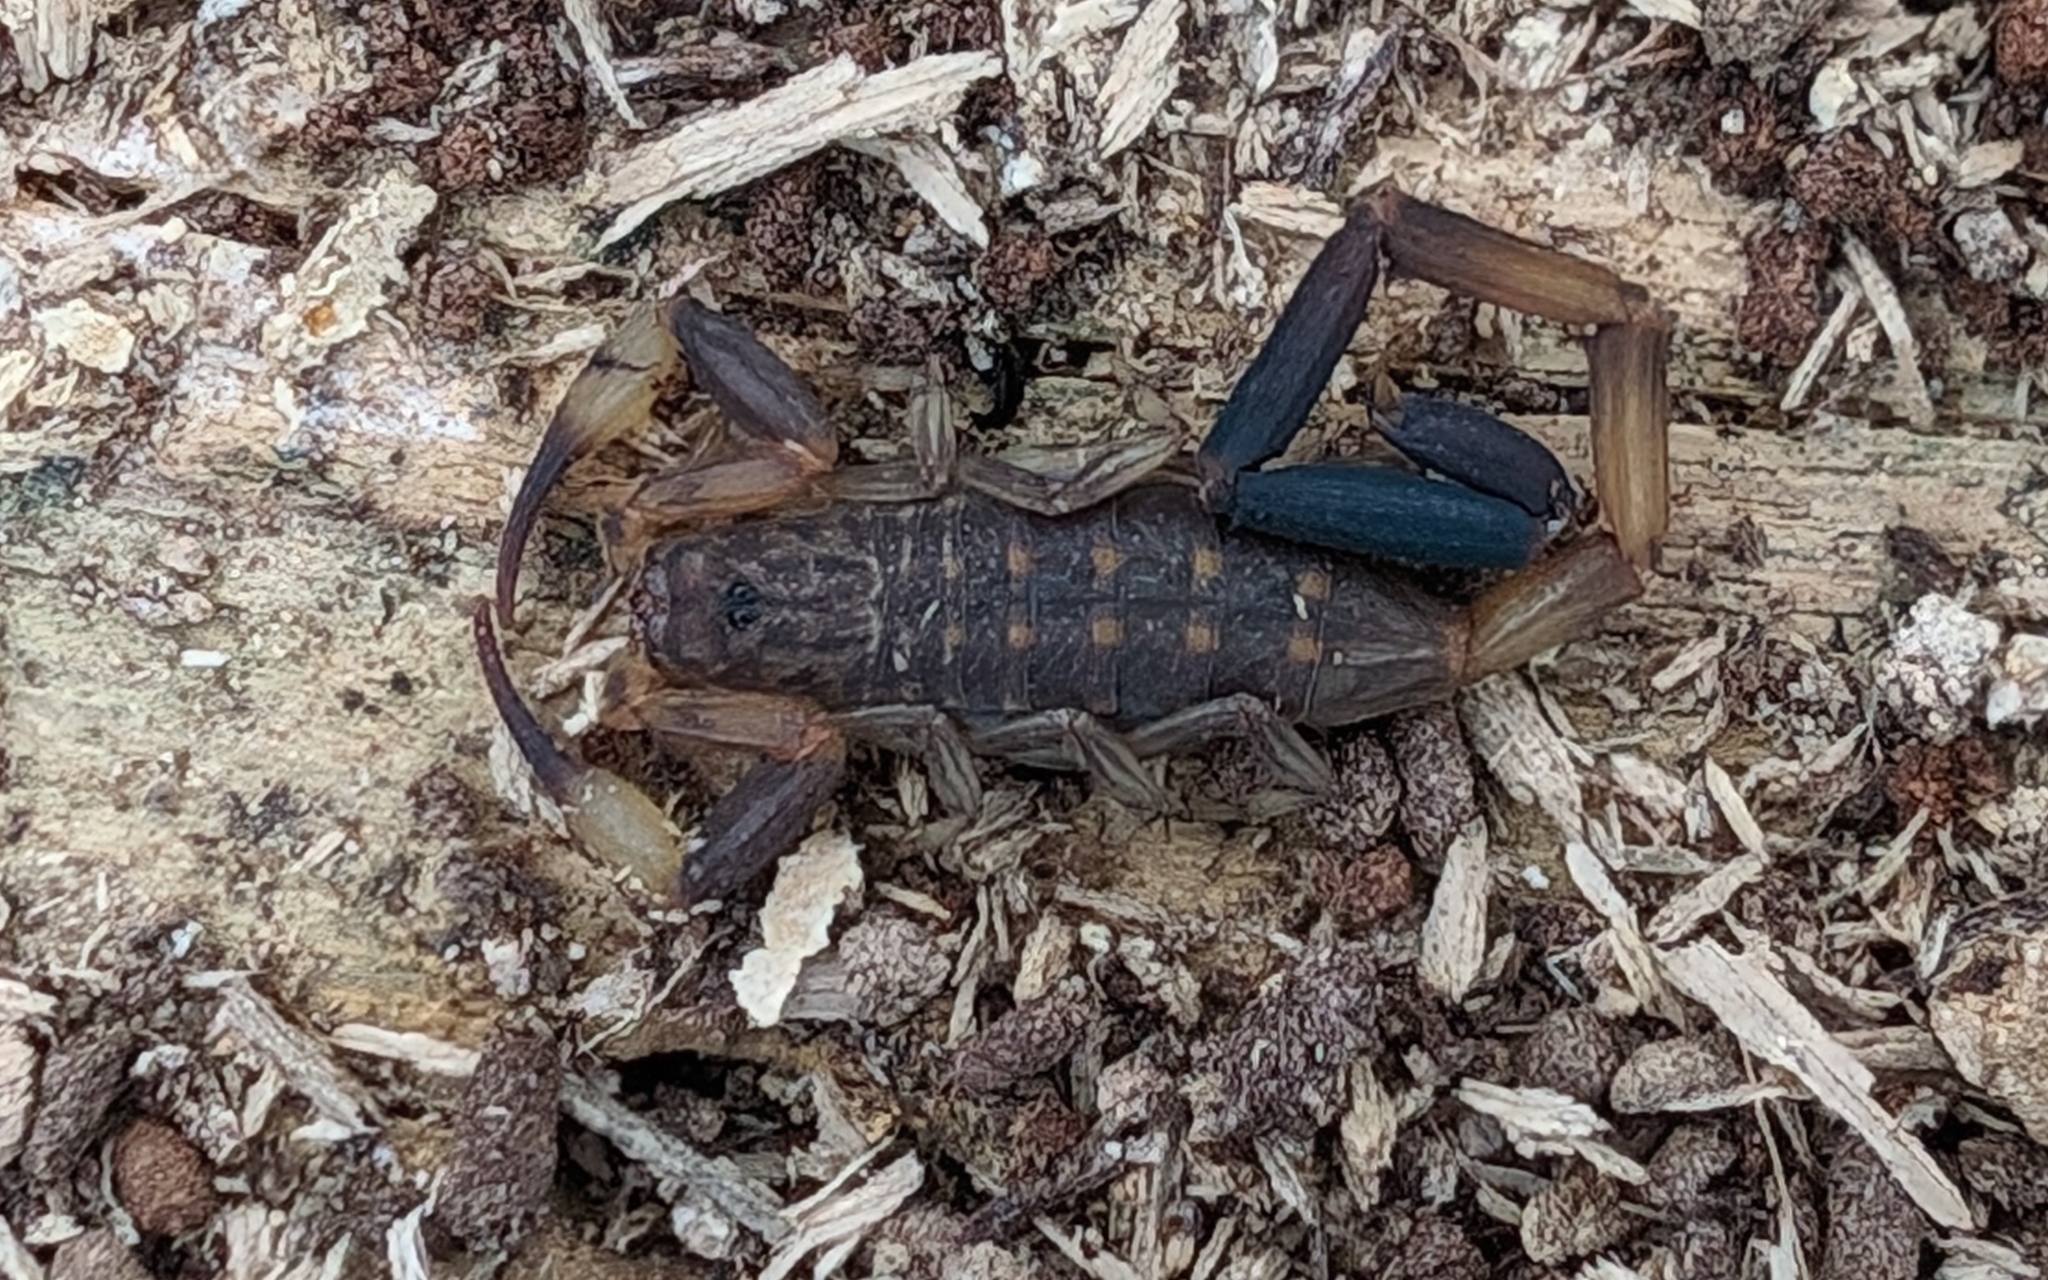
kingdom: Animalia
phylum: Arthropoda
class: Arachnida
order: Scorpiones
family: Buthidae
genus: Reddyanus
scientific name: Reddyanus melanodactylus
